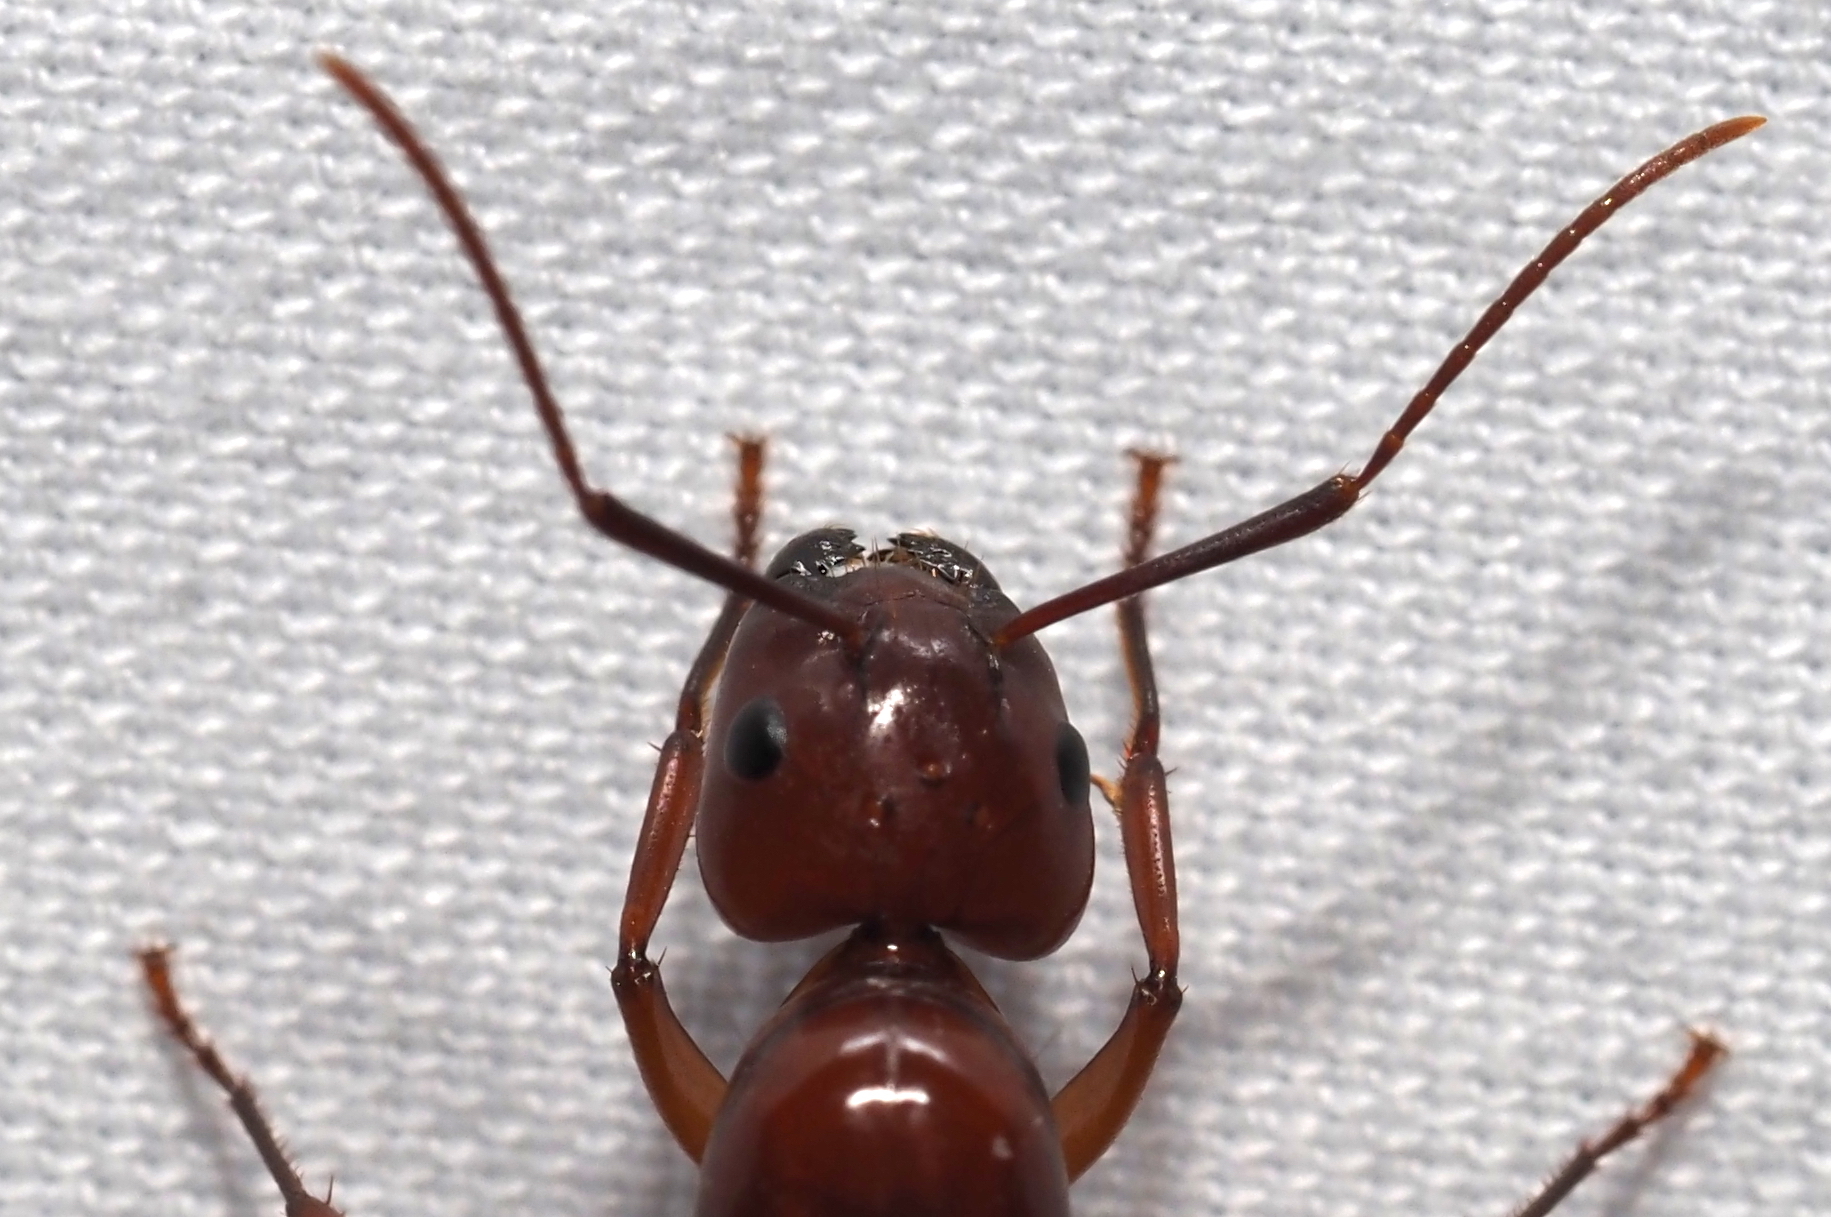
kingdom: Animalia
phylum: Arthropoda
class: Insecta
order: Hymenoptera
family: Formicidae
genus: Camponotus
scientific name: Camponotus castaneus
